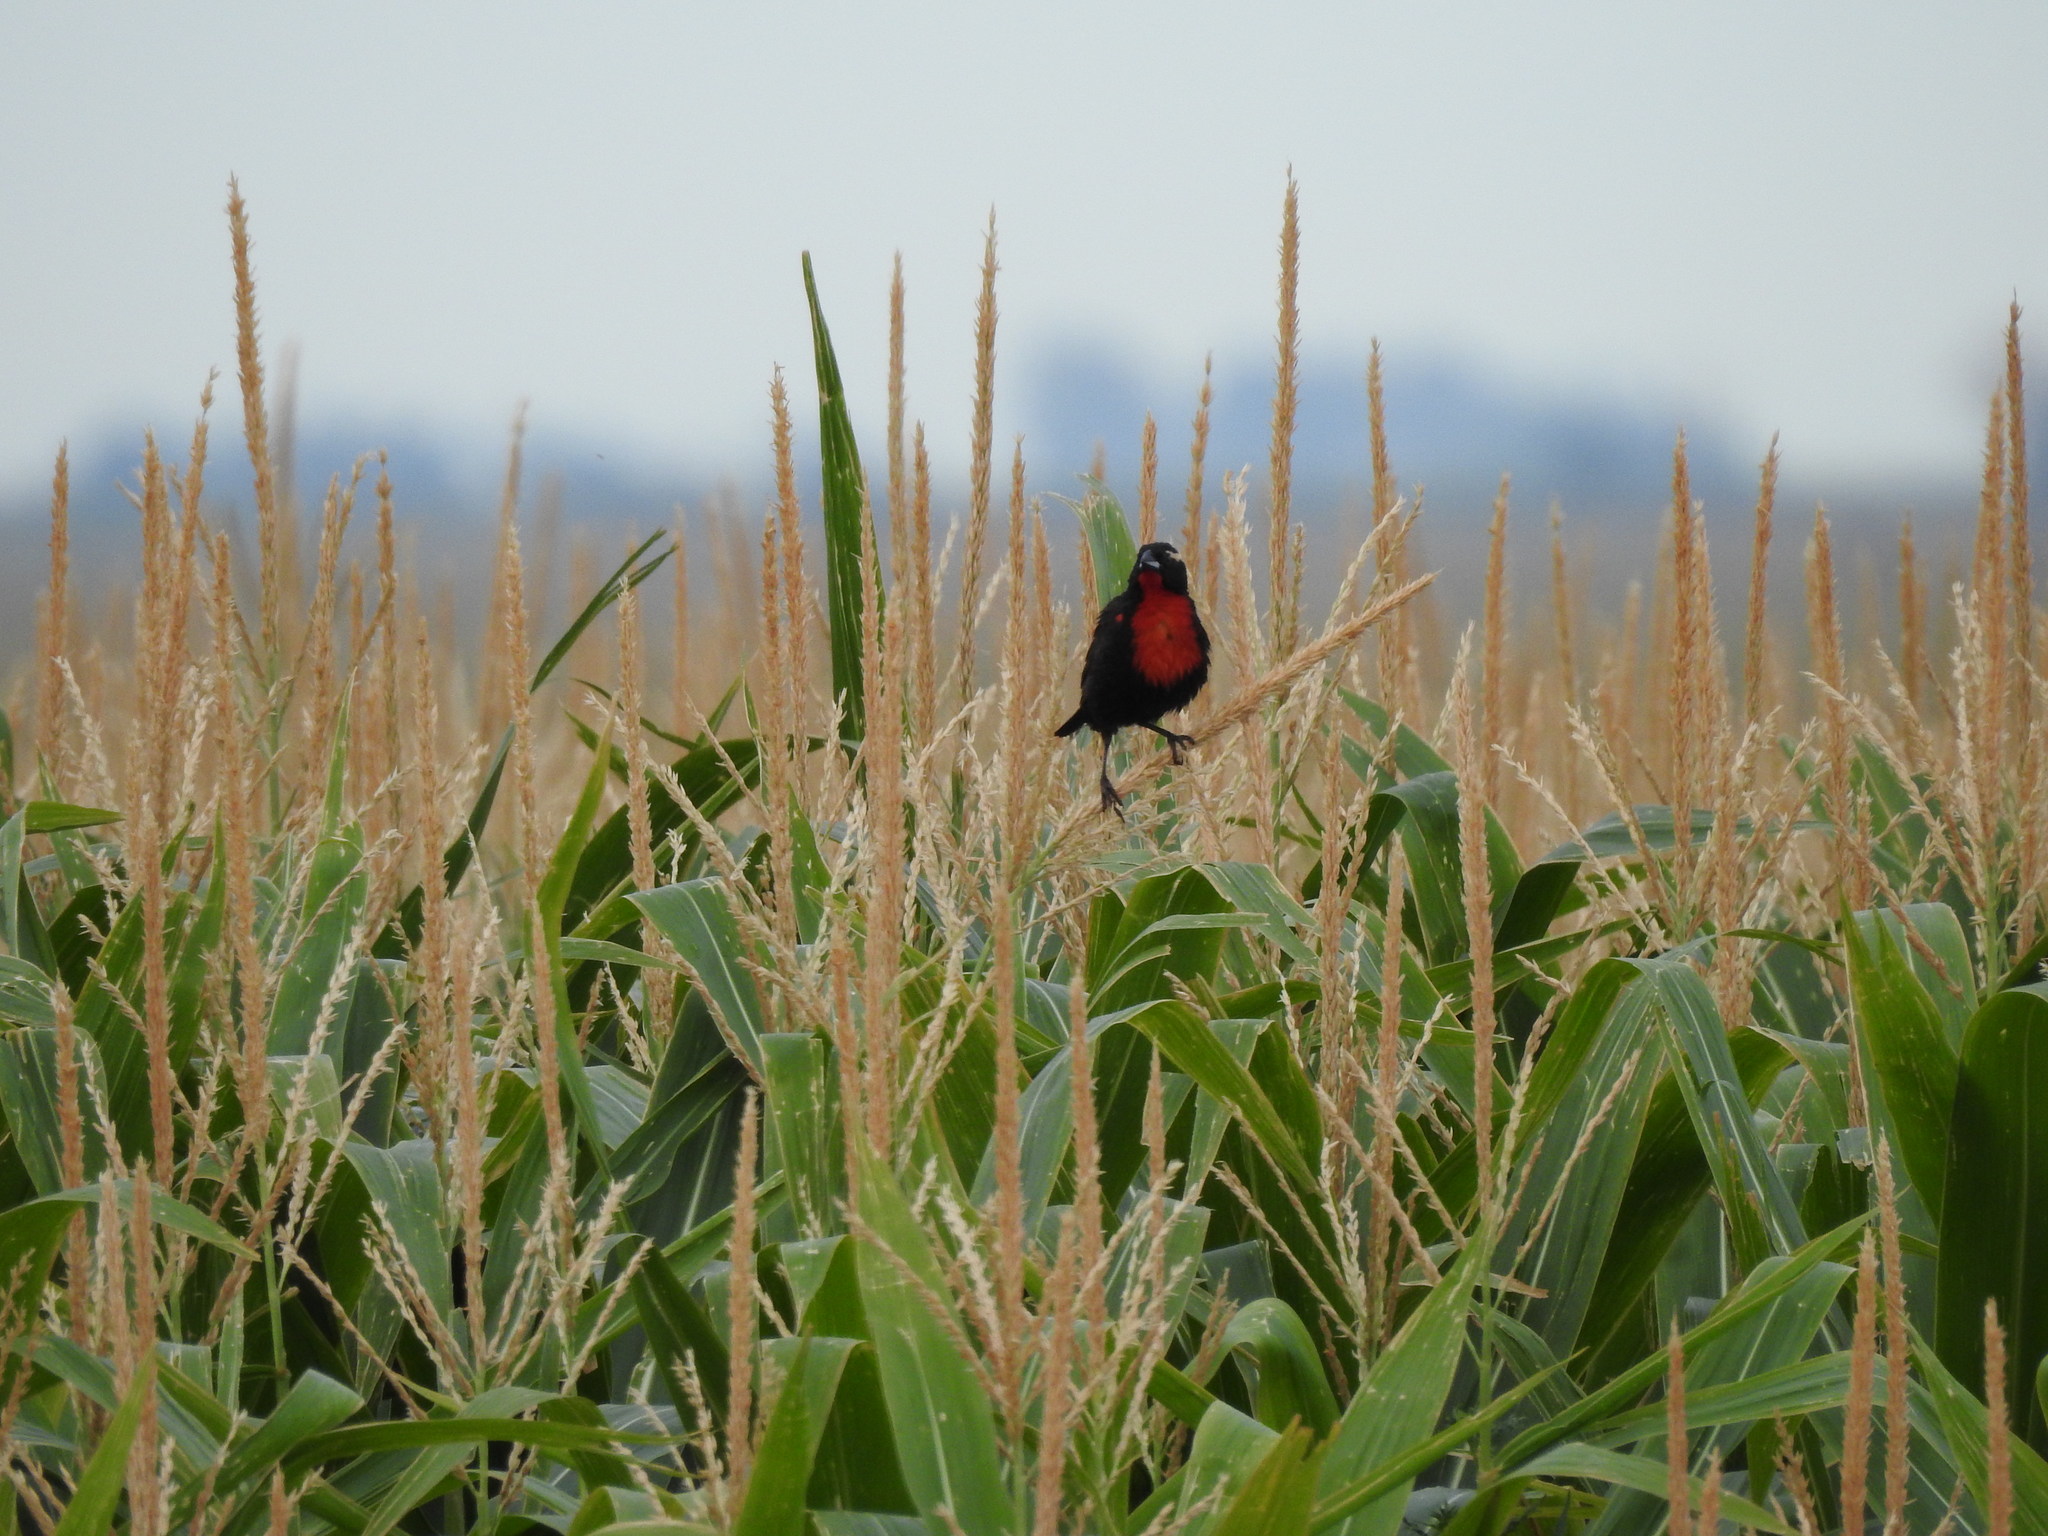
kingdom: Animalia
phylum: Chordata
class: Aves
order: Passeriformes
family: Icteridae
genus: Sturnella
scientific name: Sturnella superciliaris
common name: White-browed blackbird
